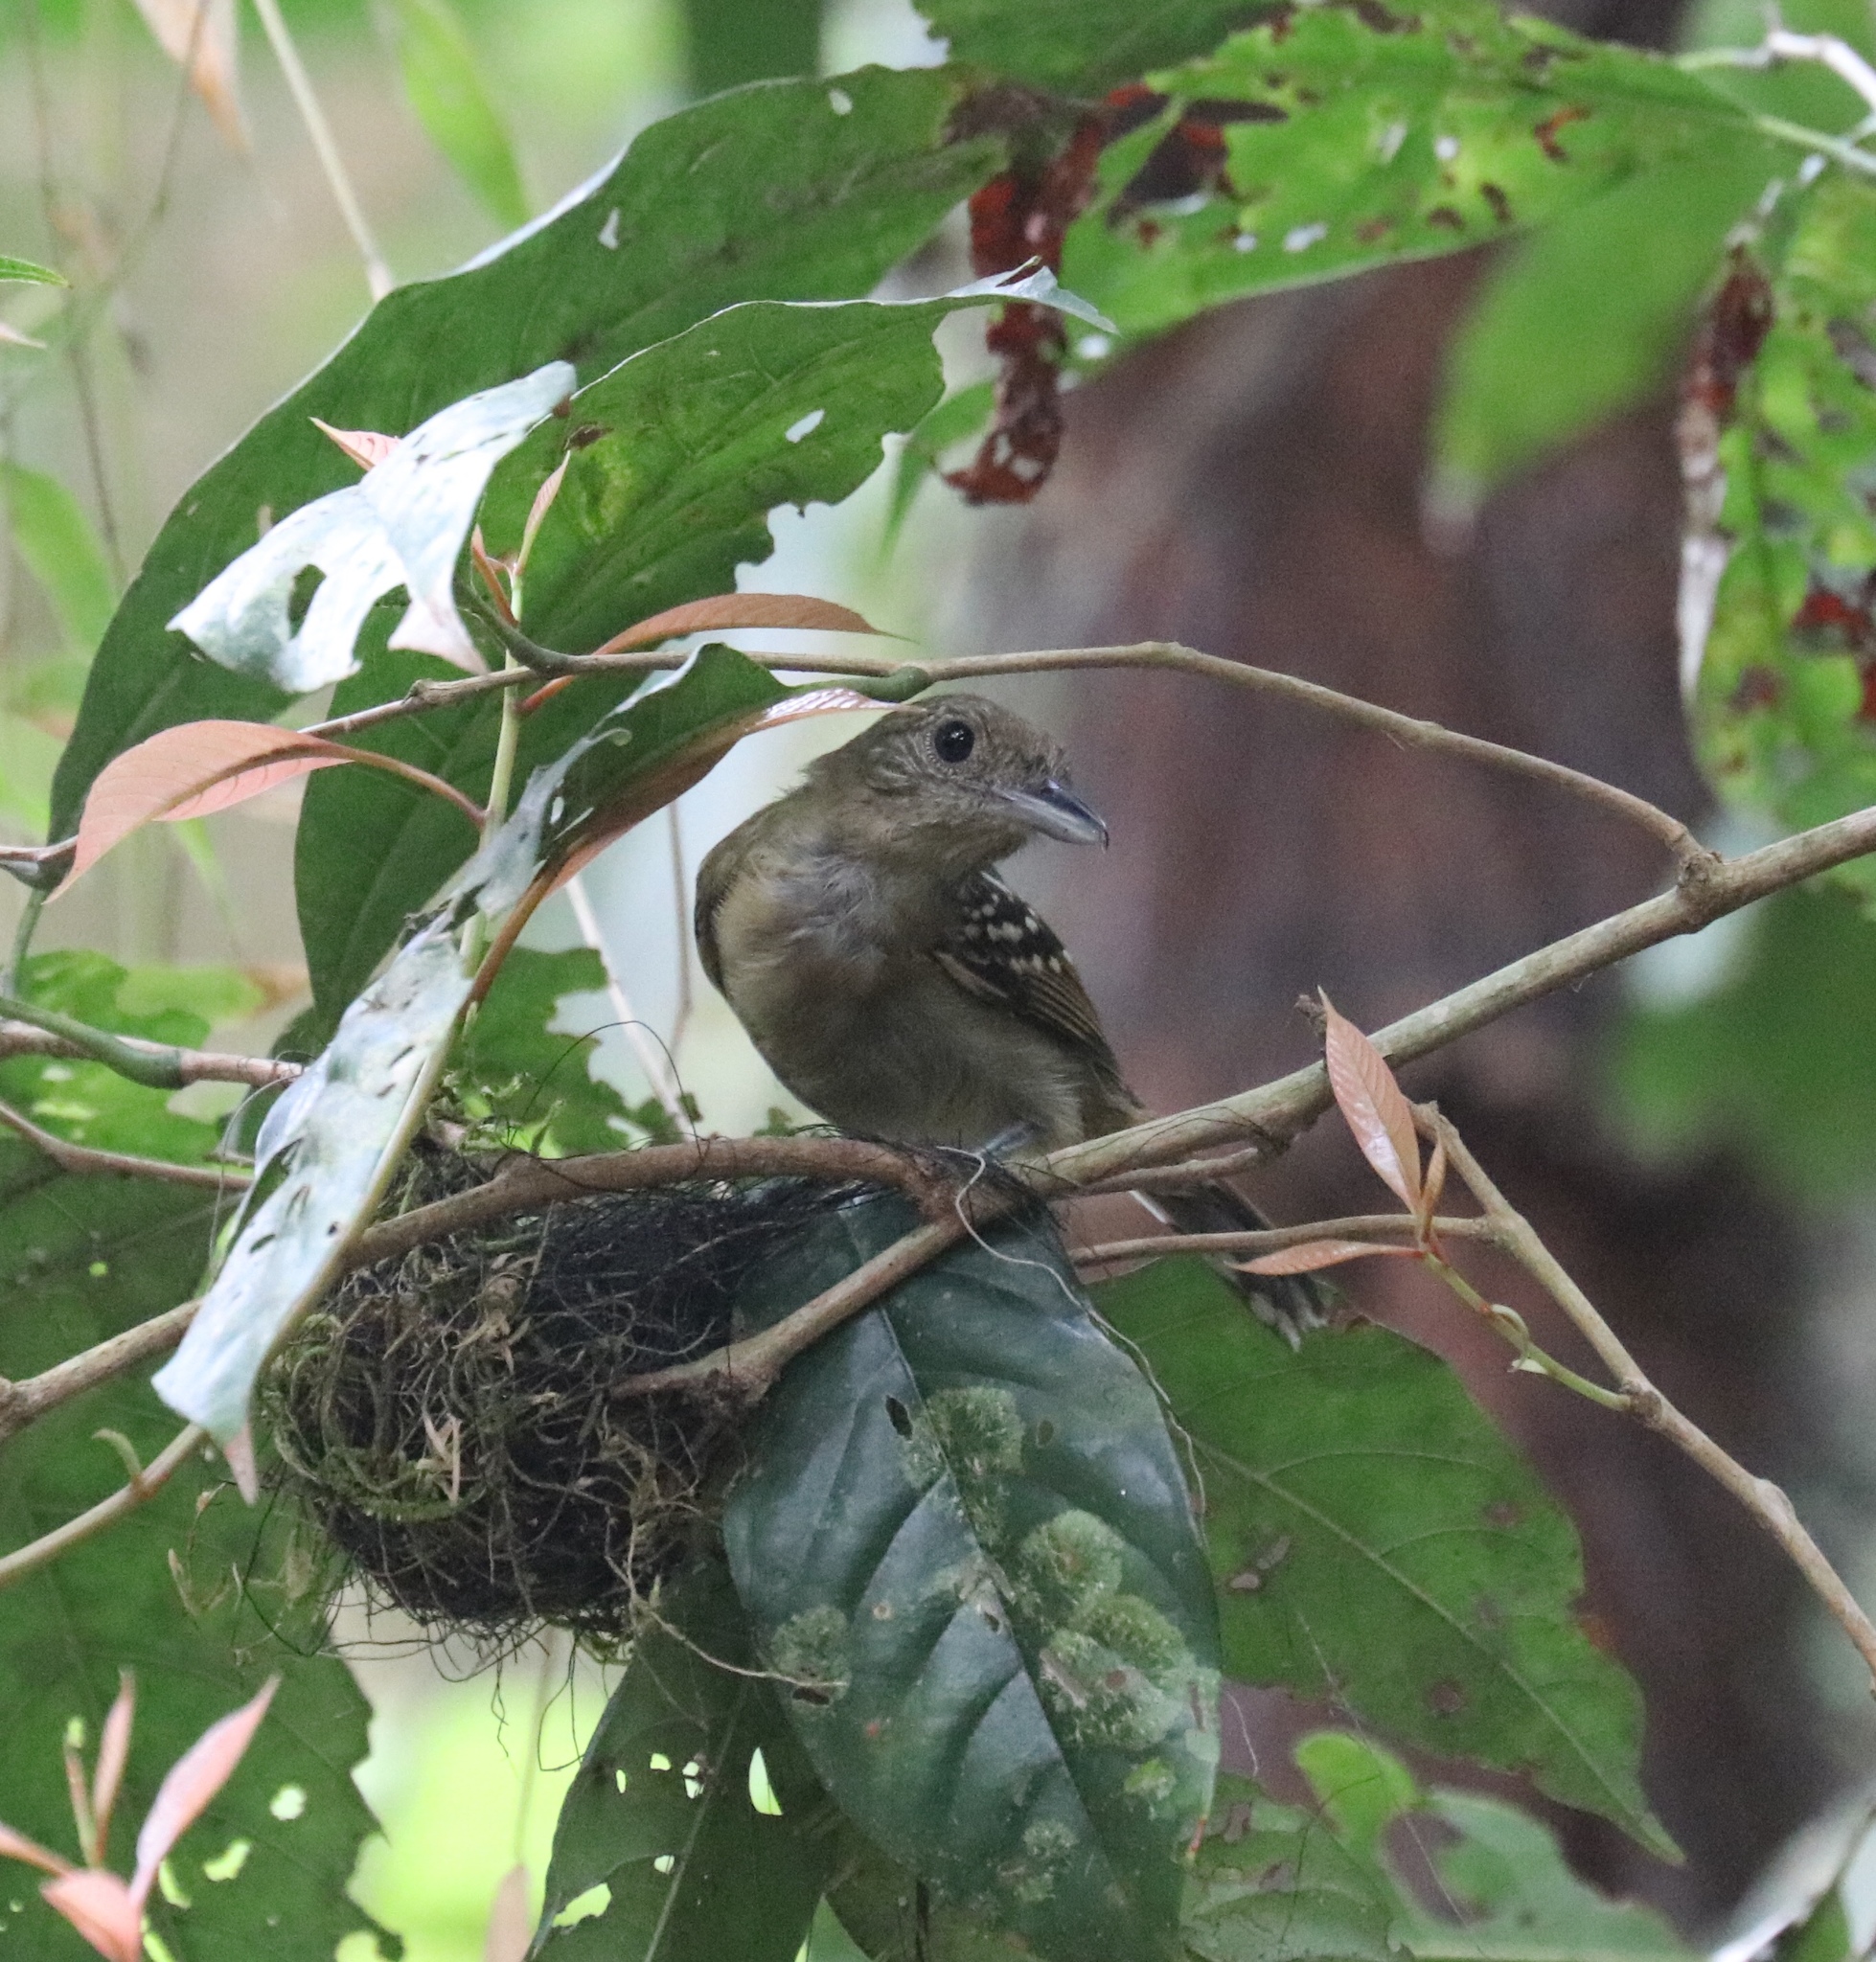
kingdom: Animalia
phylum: Chordata
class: Aves
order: Passeriformes
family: Thamnophilidae
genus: Thamnophilus
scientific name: Thamnophilus atrinucha
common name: Black-crowned antshrike
